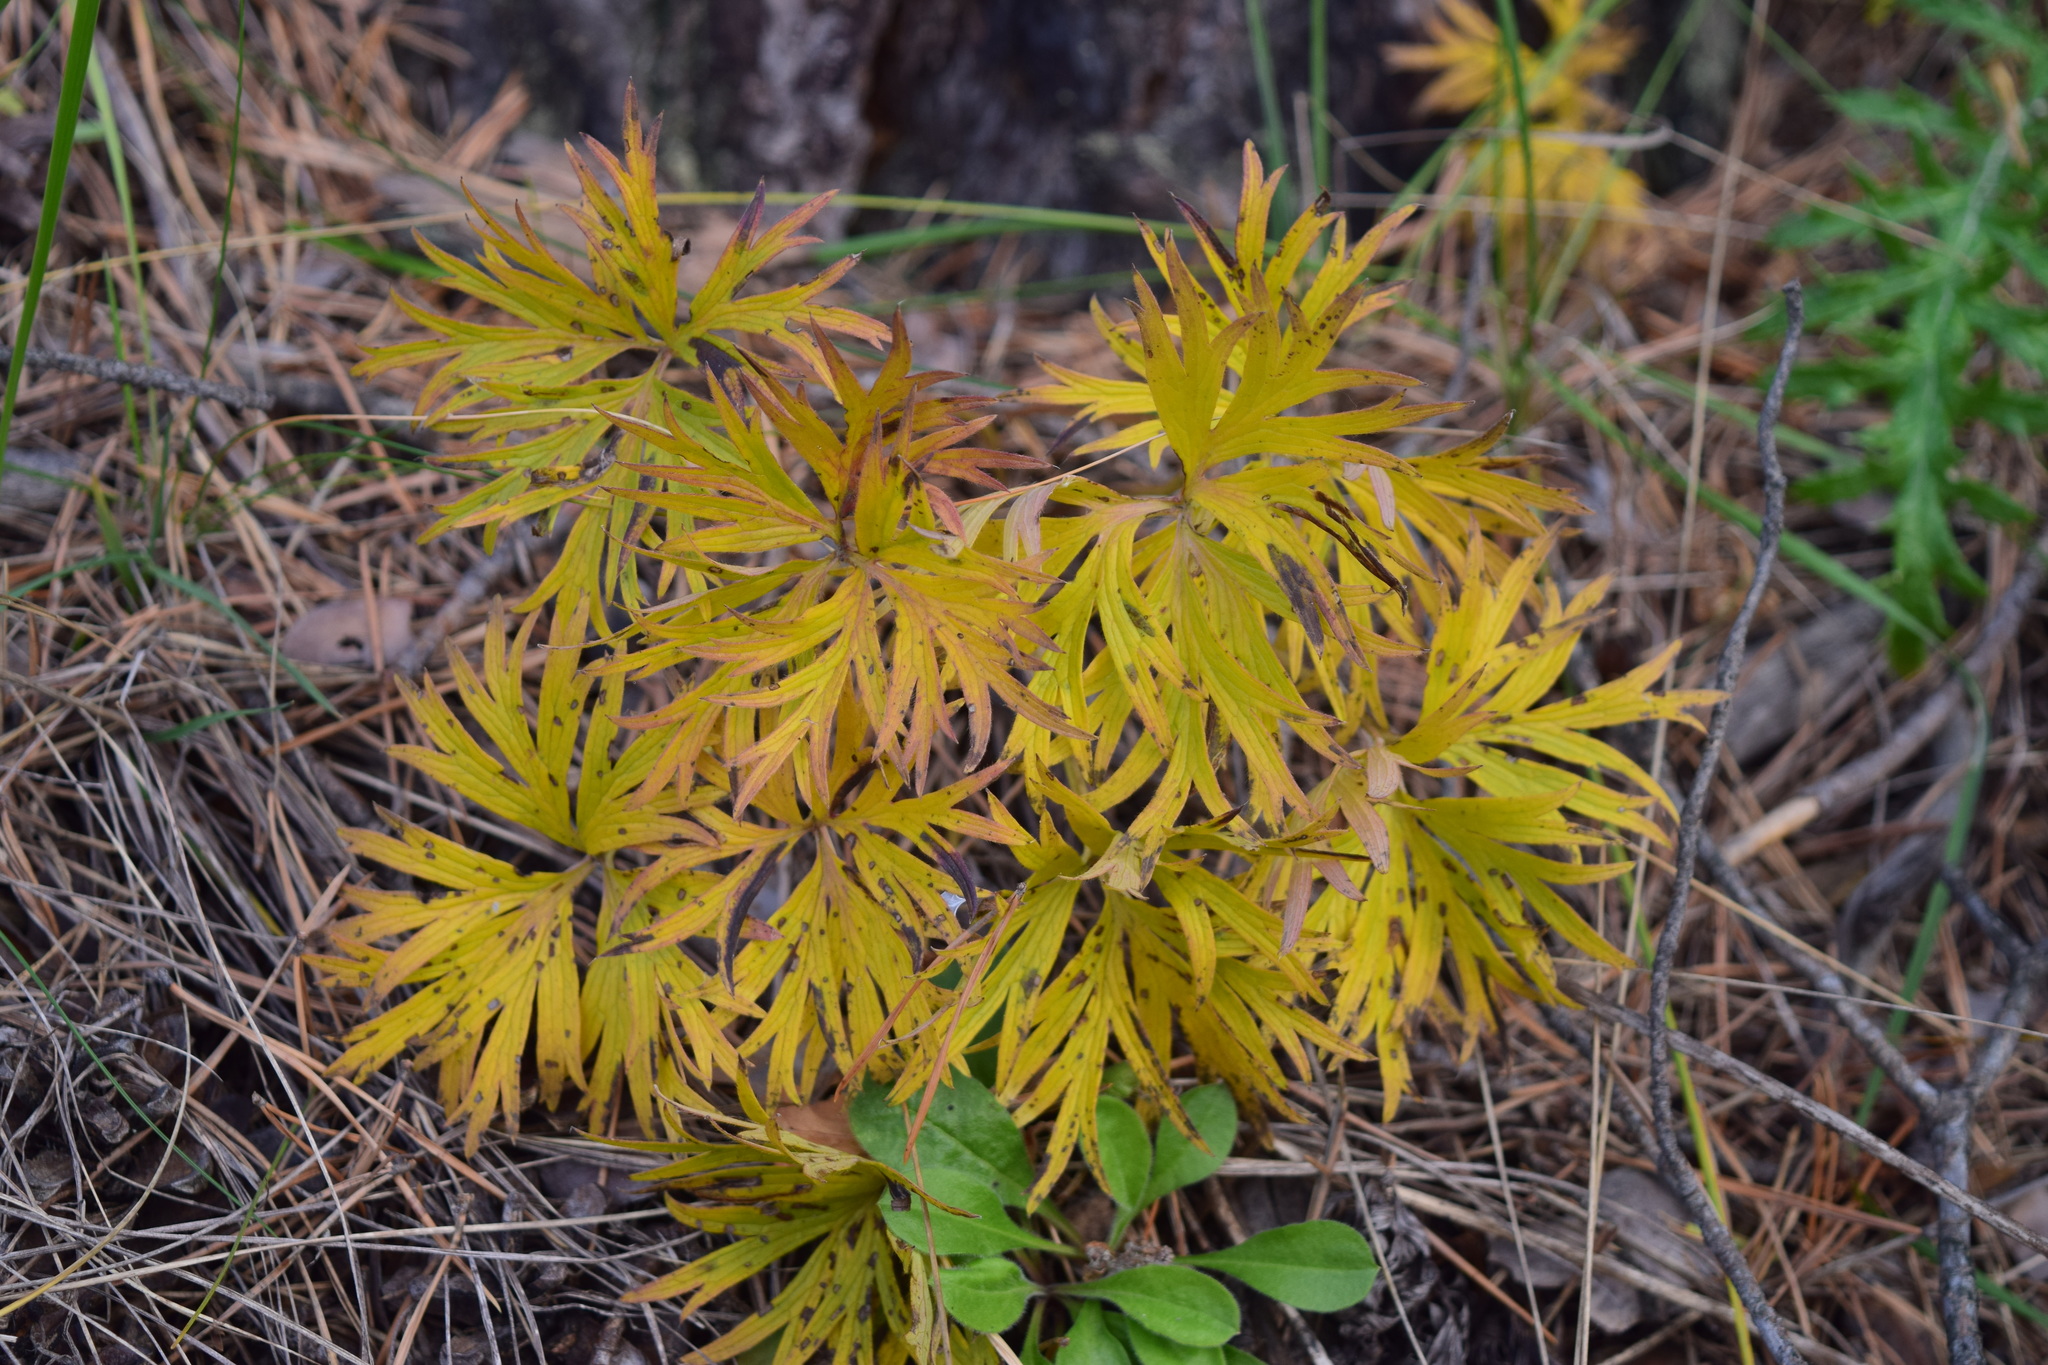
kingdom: Plantae
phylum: Tracheophyta
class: Magnoliopsida
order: Ranunculales
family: Ranunculaceae
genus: Pulsatilla
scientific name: Pulsatilla patens
